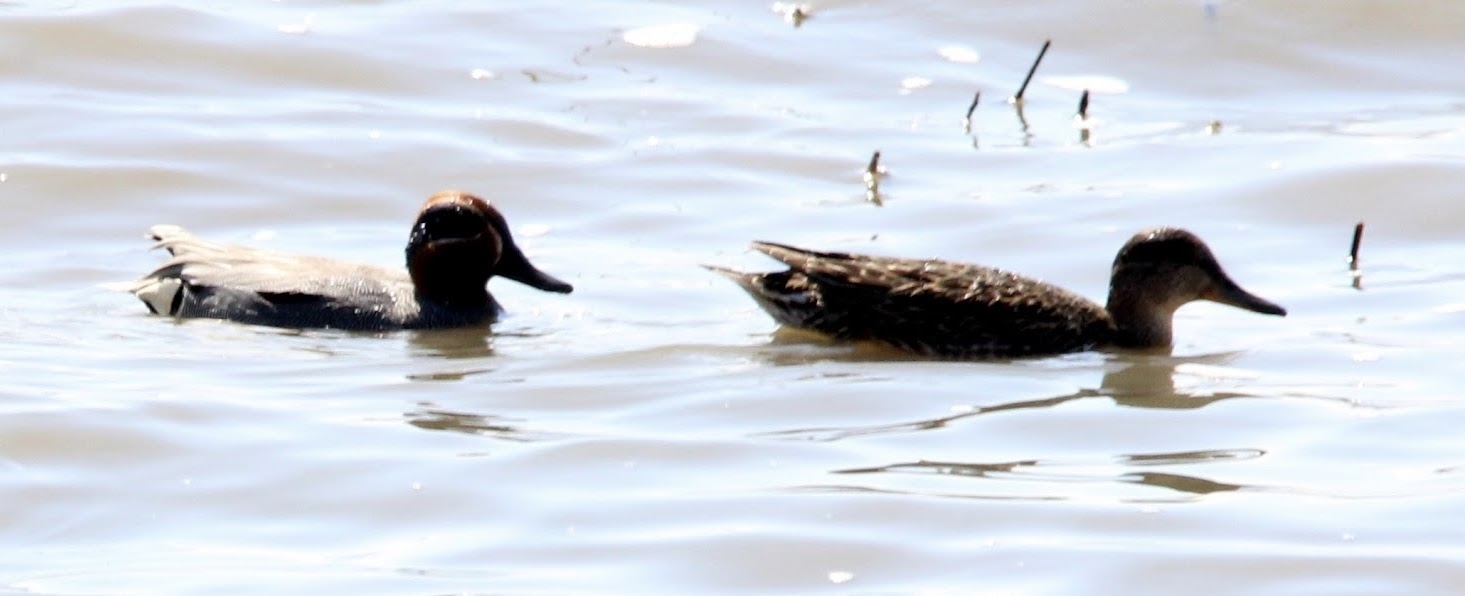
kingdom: Animalia
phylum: Chordata
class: Aves
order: Anseriformes
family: Anatidae
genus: Anas
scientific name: Anas crecca
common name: Eurasian teal
